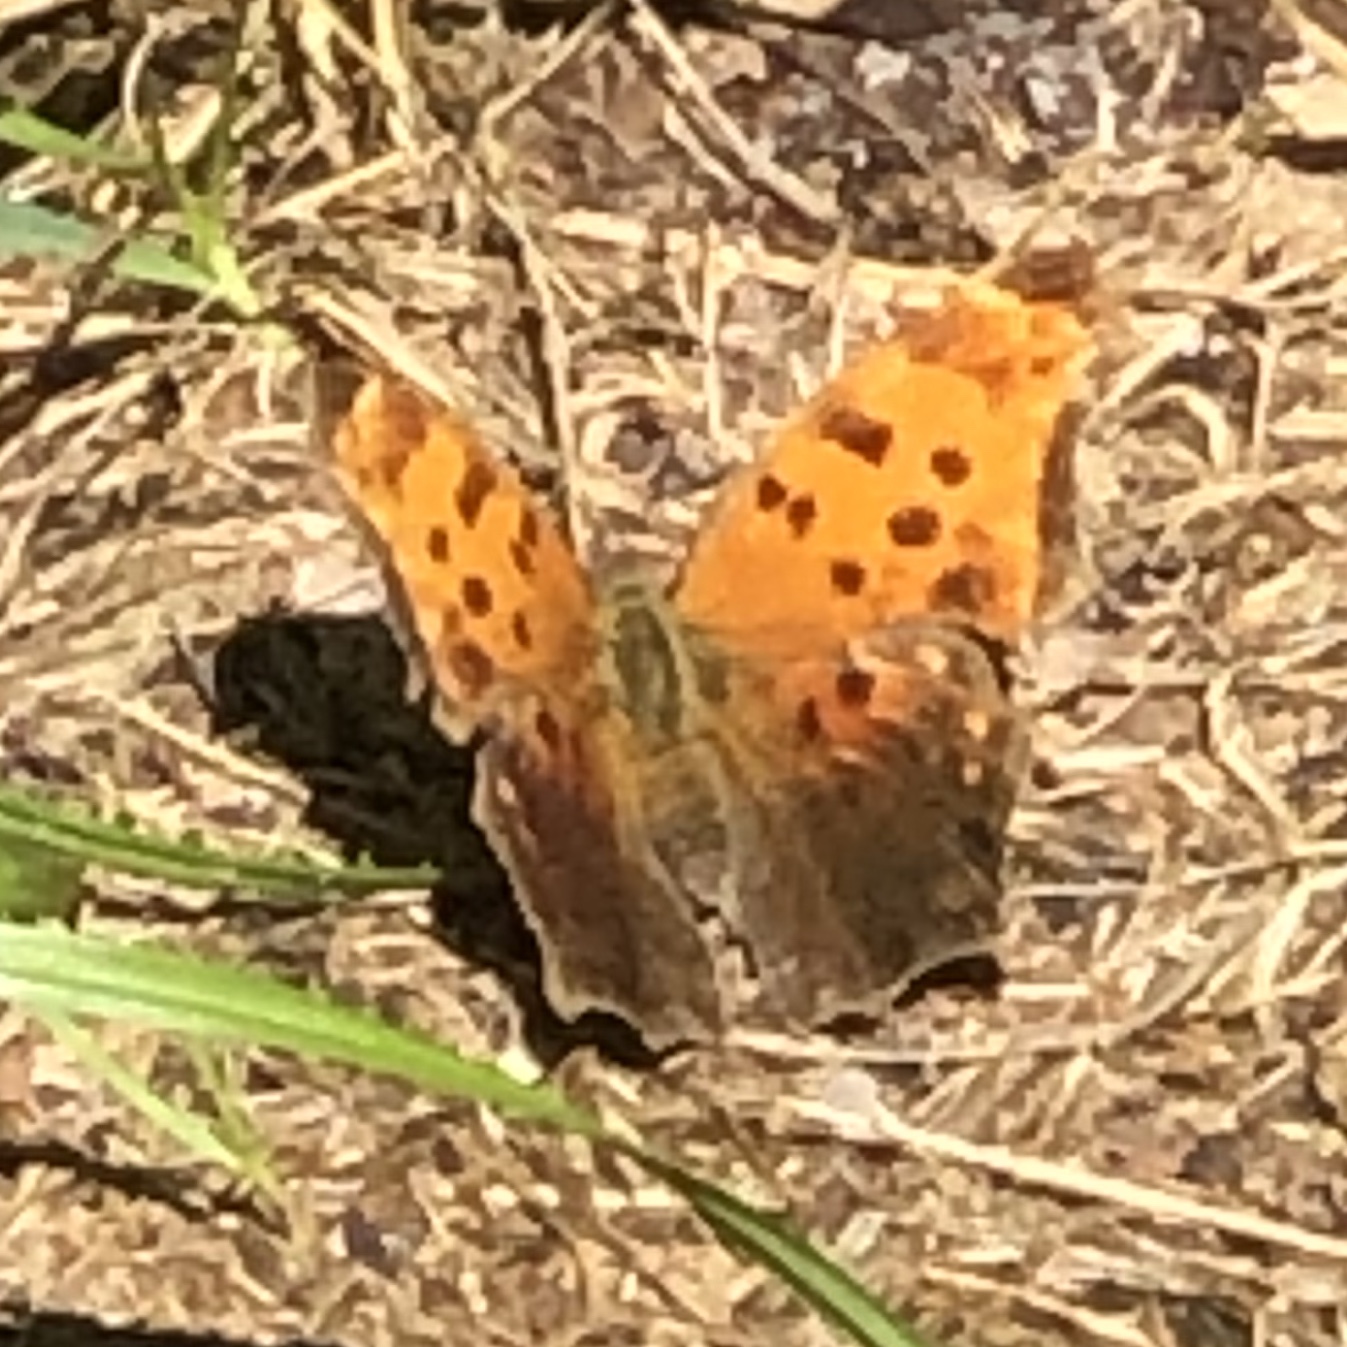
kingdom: Animalia
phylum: Arthropoda
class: Insecta
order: Lepidoptera
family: Nymphalidae
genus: Polygonia
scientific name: Polygonia comma
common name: Eastern comma
